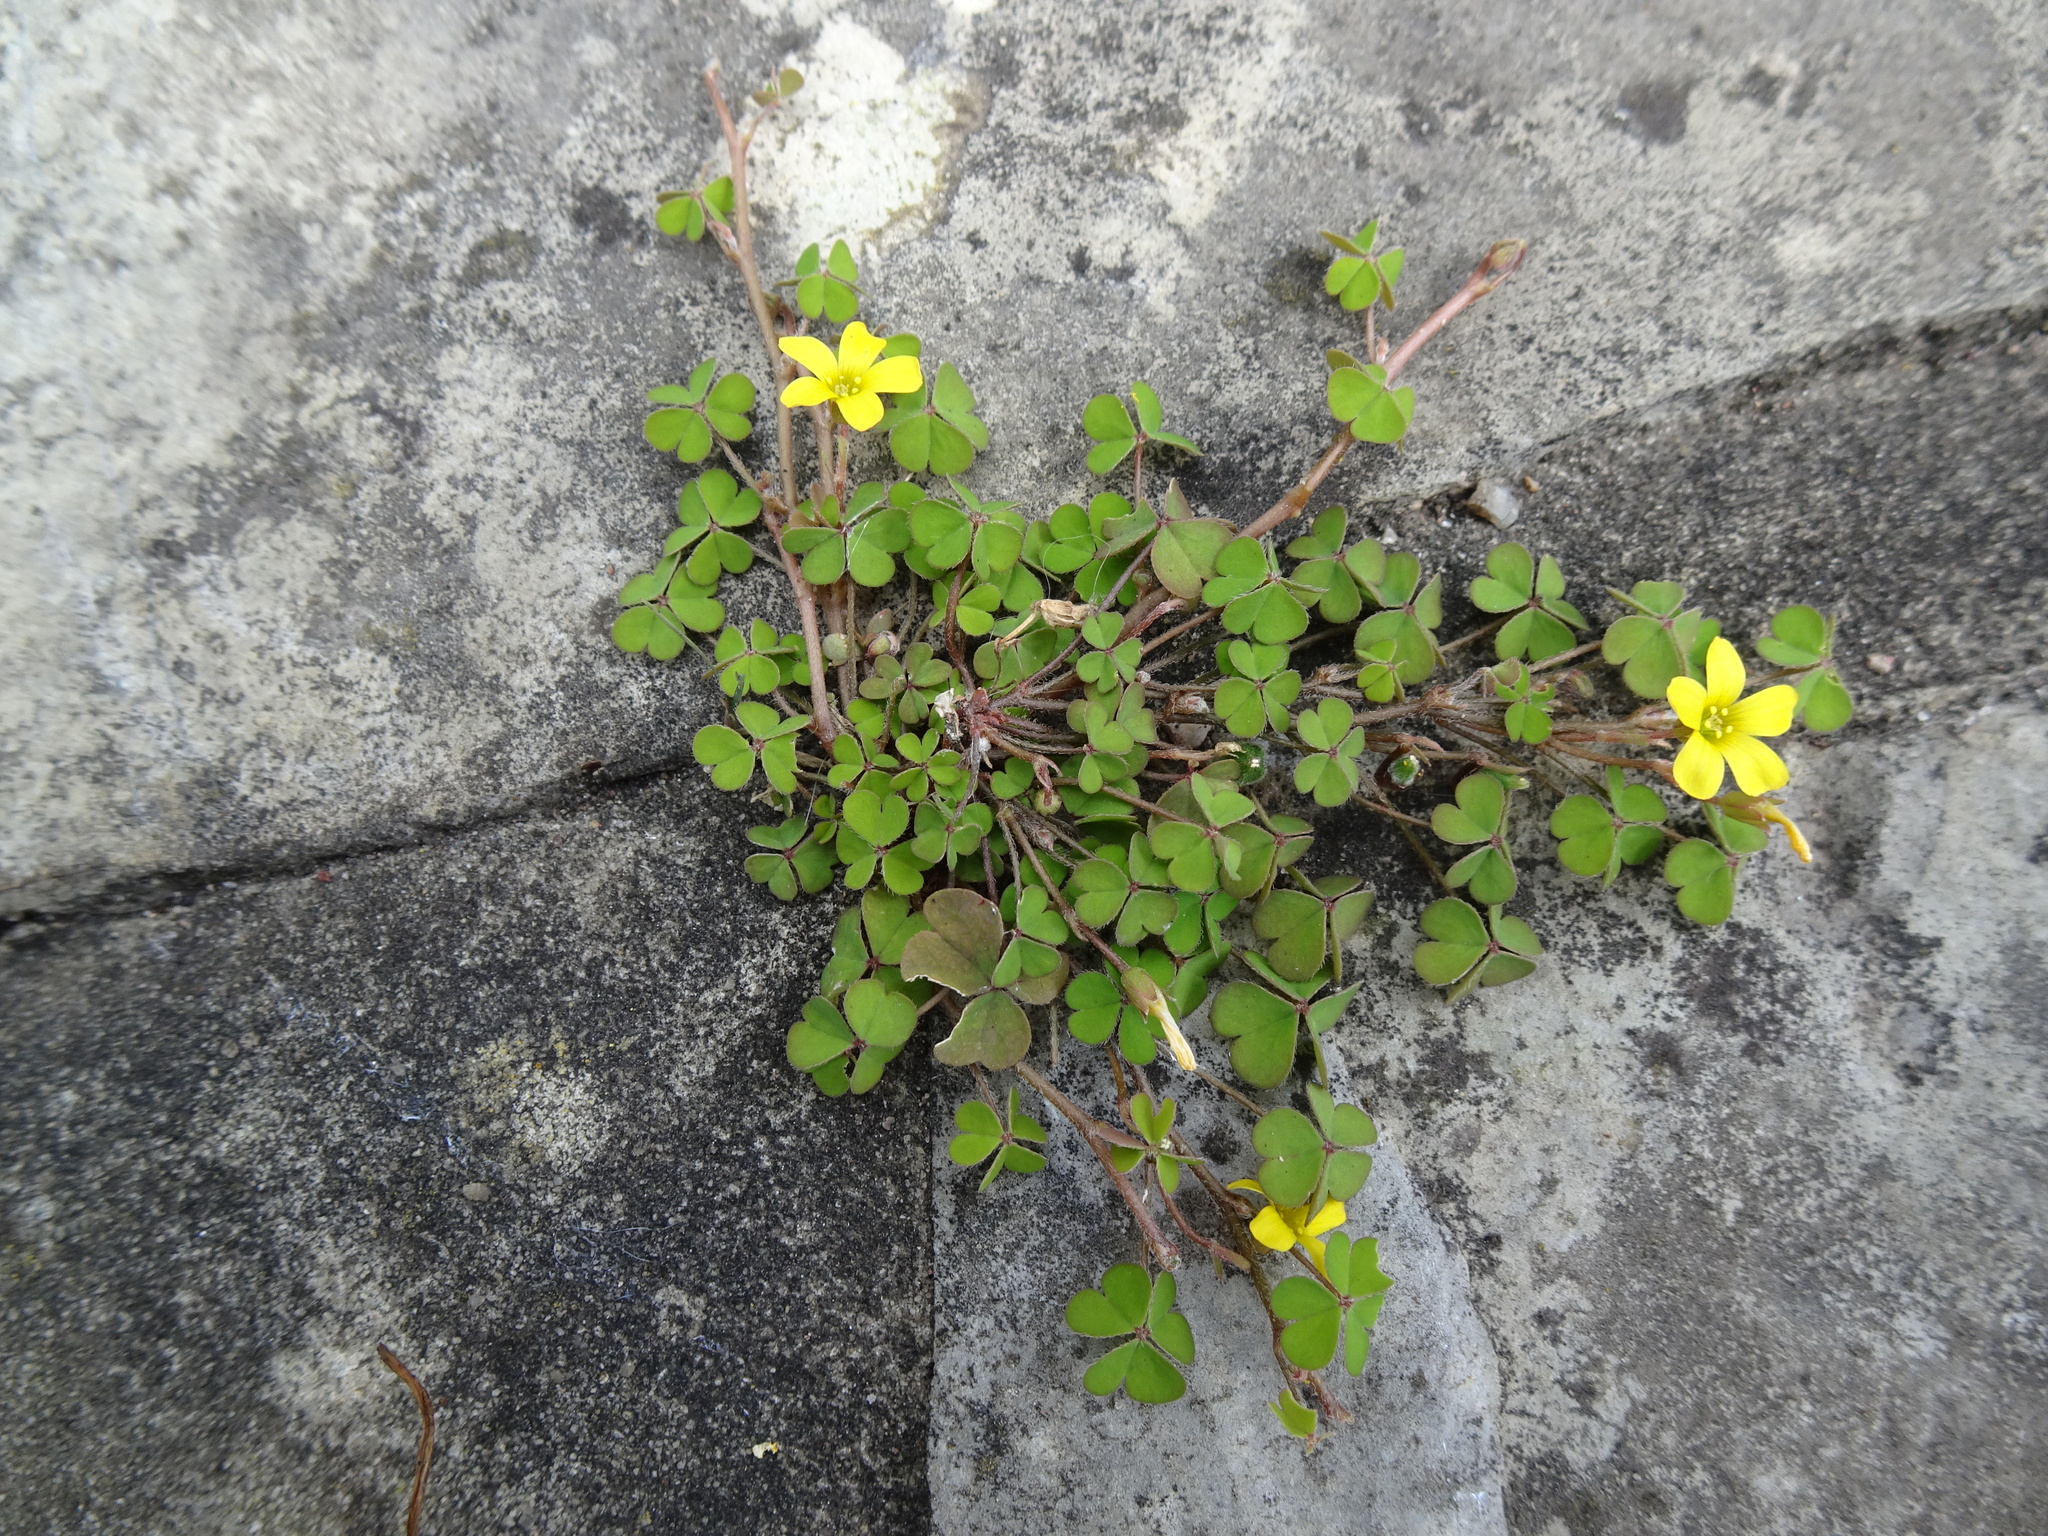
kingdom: Plantae
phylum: Tracheophyta
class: Magnoliopsida
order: Oxalidales
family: Oxalidaceae
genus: Oxalis
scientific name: Oxalis corniculata
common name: Procumbent yellow-sorrel
